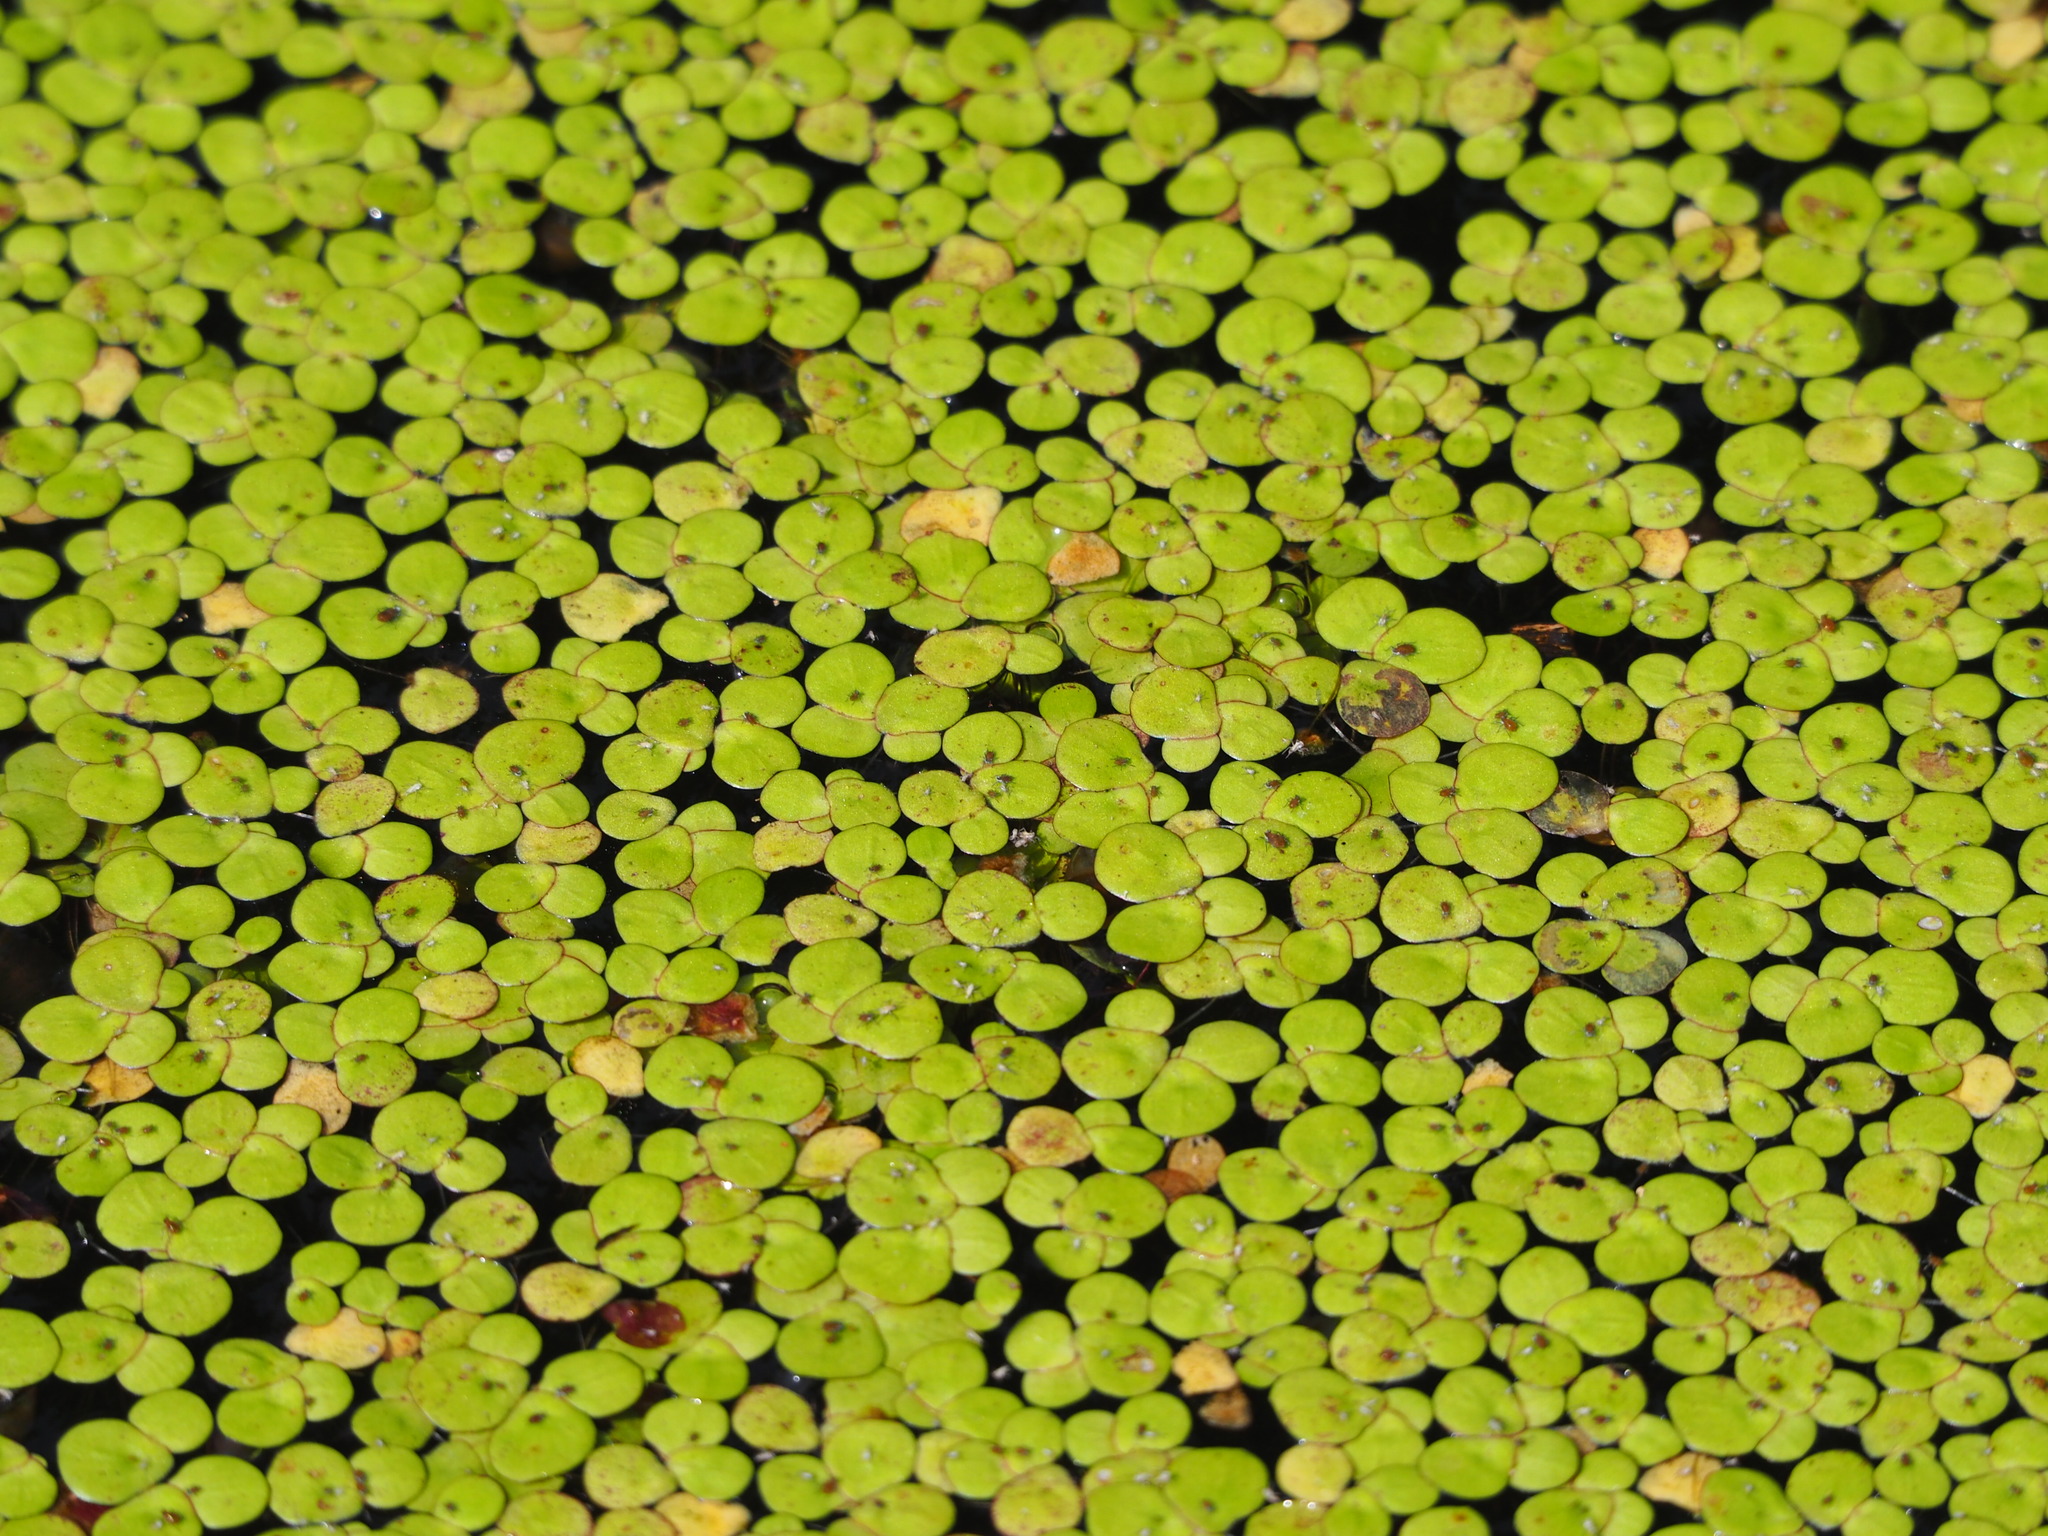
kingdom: Plantae
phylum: Tracheophyta
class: Liliopsida
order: Alismatales
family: Araceae
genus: Spirodela
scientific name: Spirodela polyrhiza
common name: Great duckweed
